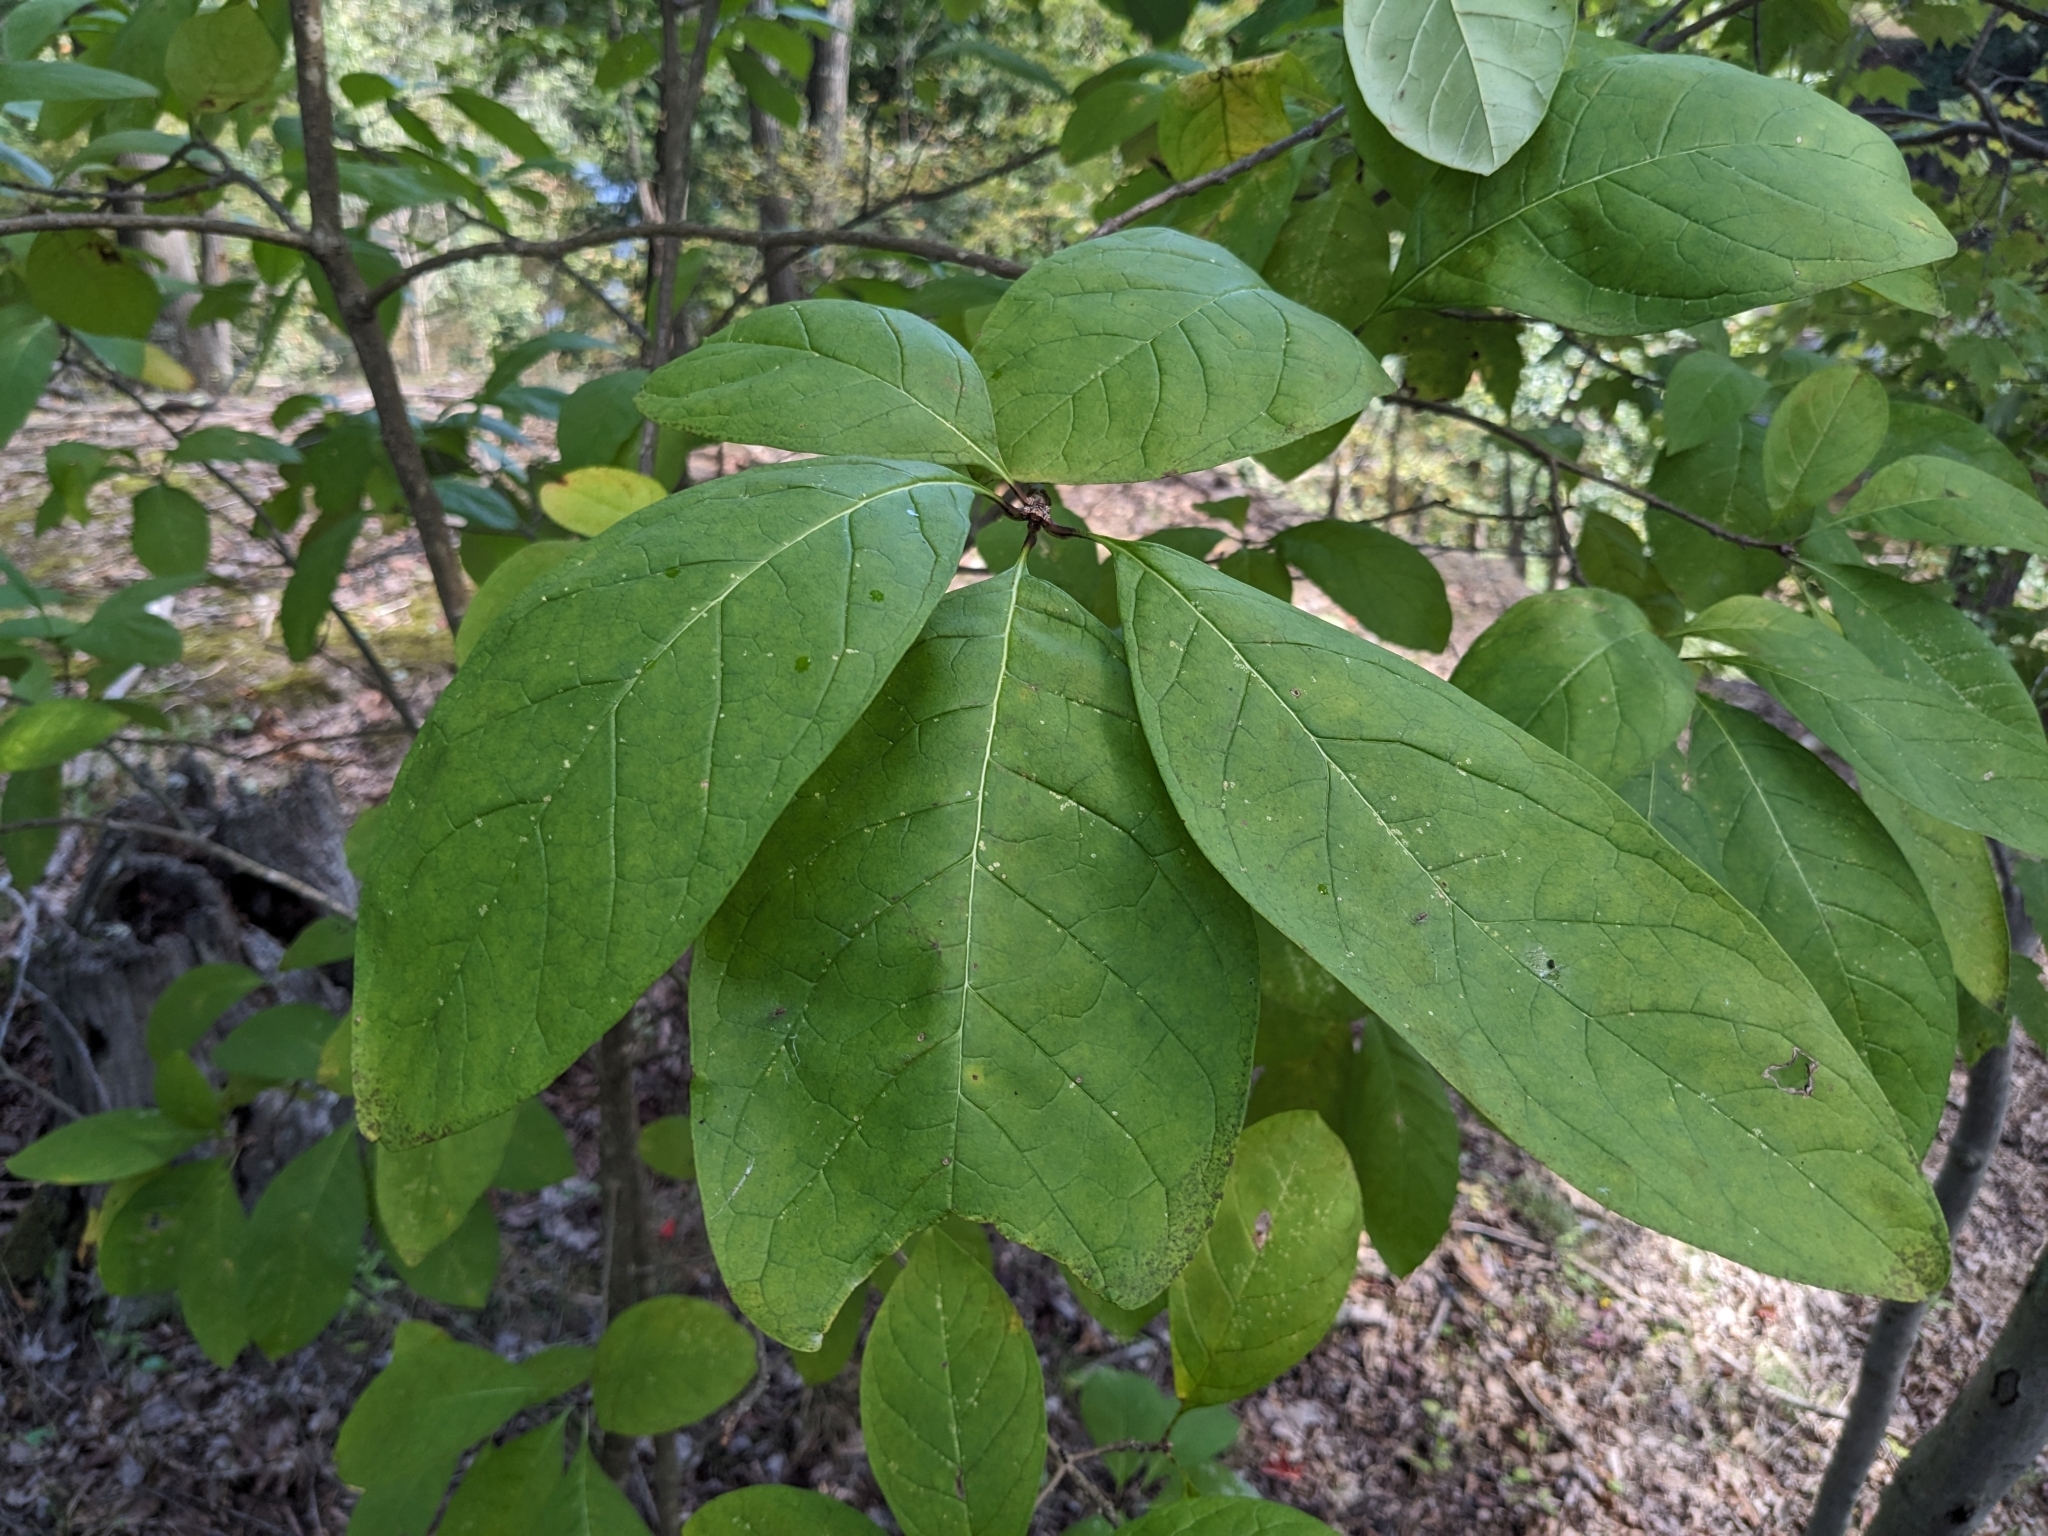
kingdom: Plantae
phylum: Tracheophyta
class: Magnoliopsida
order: Cornales
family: Nyssaceae
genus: Nyssa
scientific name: Nyssa sylvatica
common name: Black tupelo
